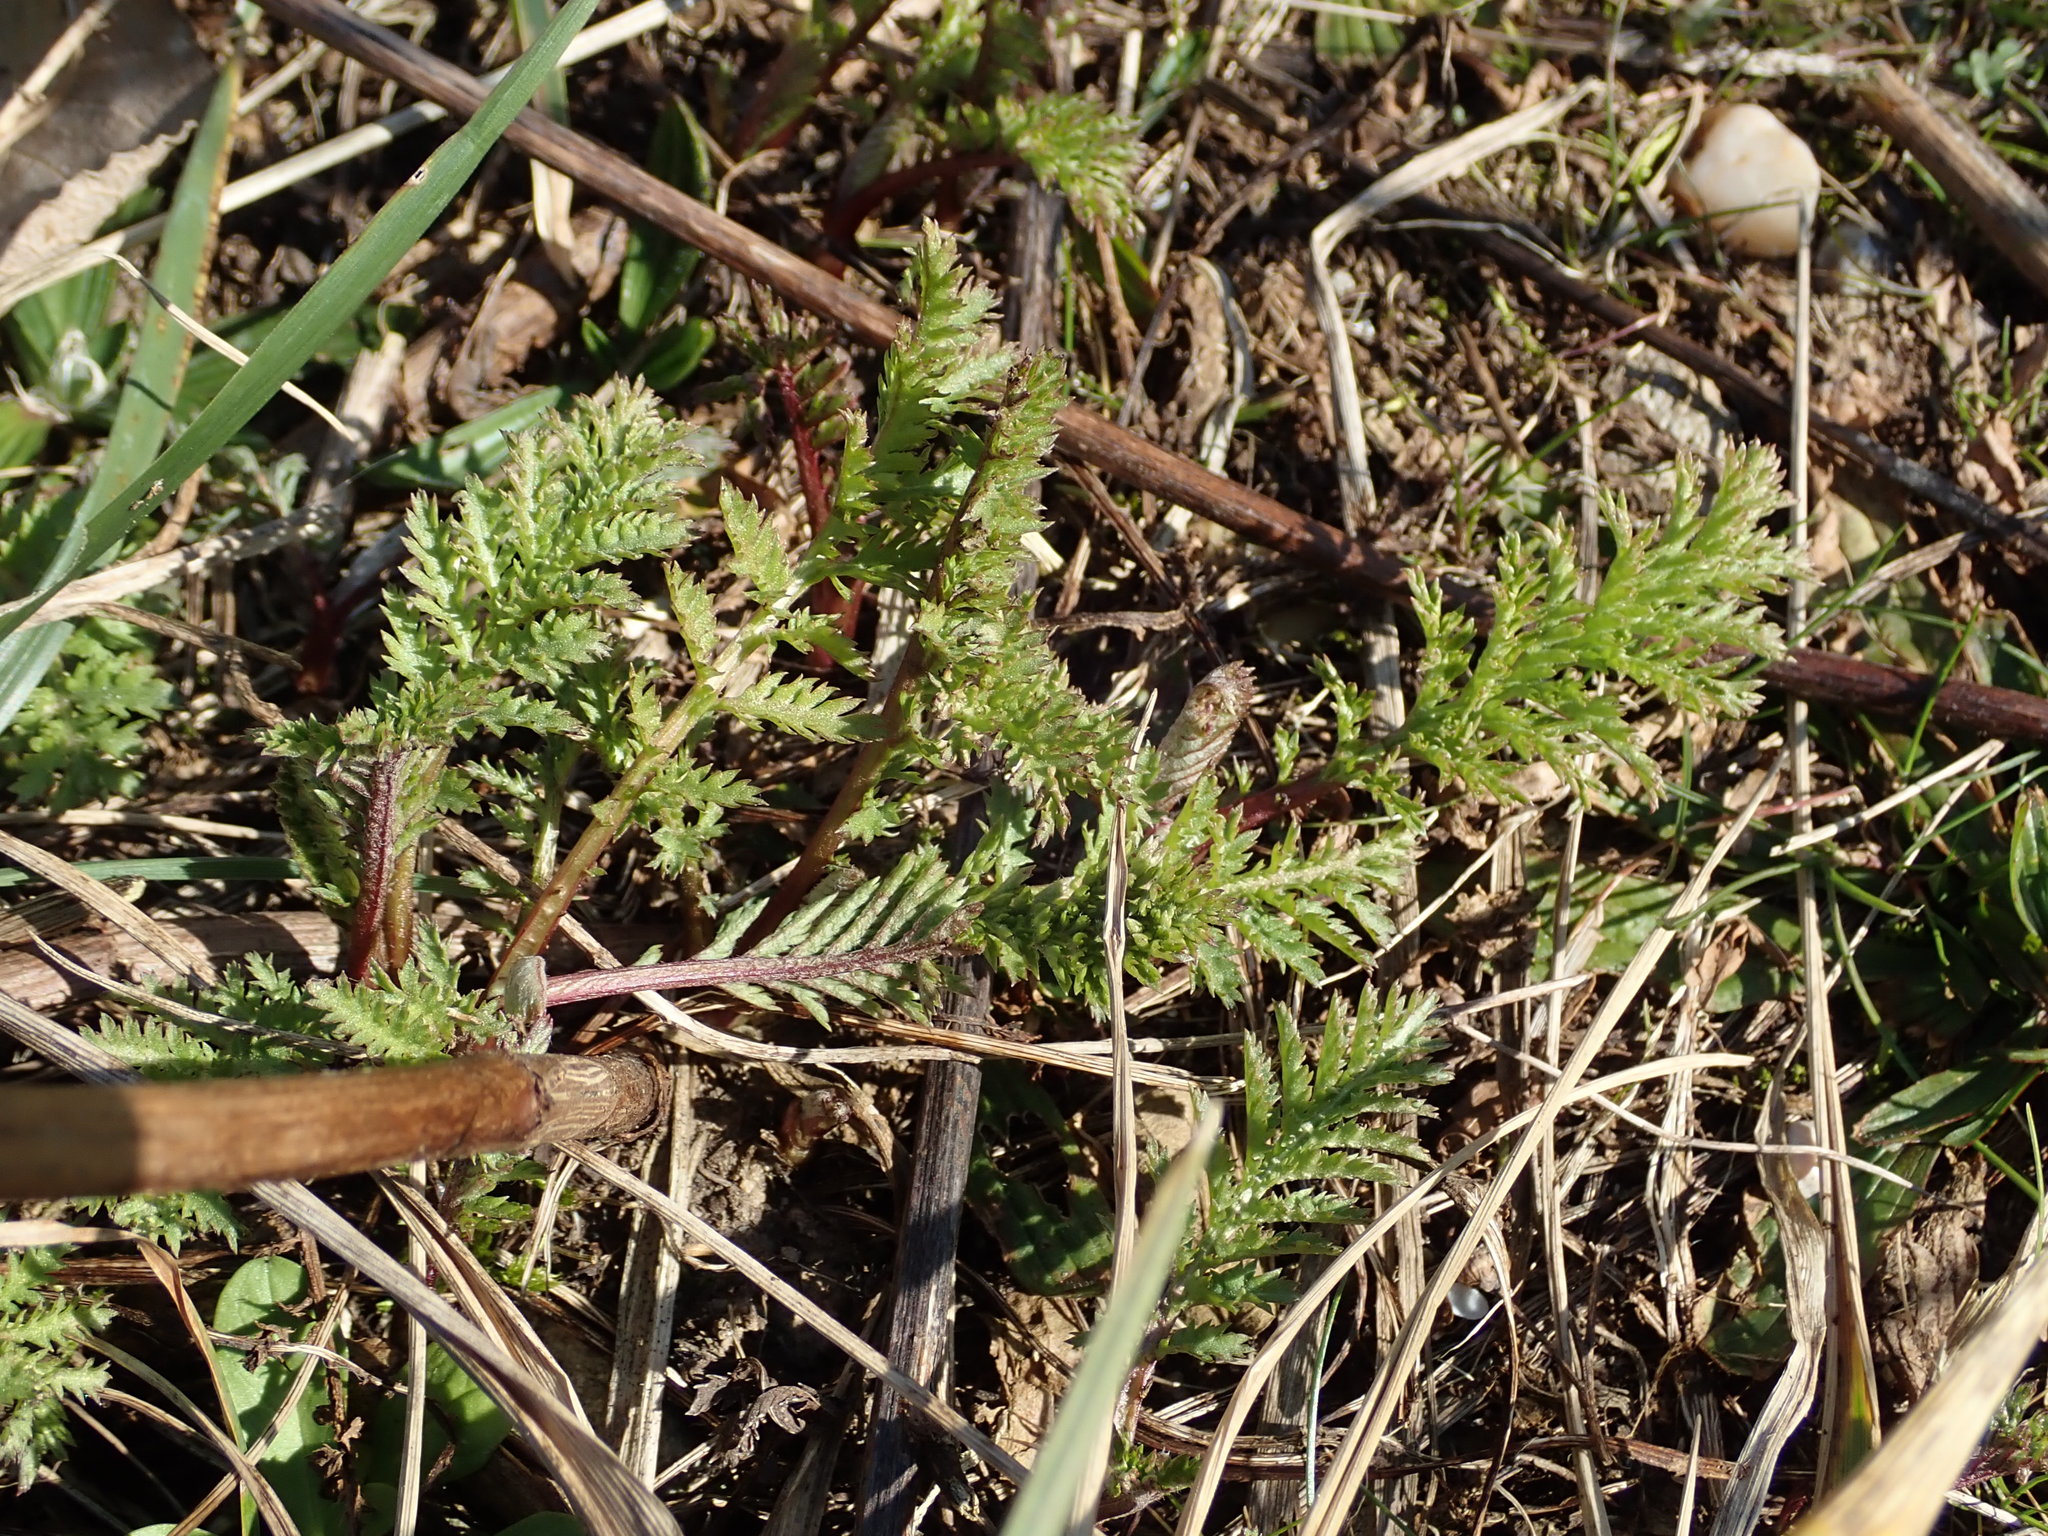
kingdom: Plantae
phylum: Tracheophyta
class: Magnoliopsida
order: Asterales
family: Asteraceae
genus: Tanacetum
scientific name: Tanacetum vulgare
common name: Common tansy
